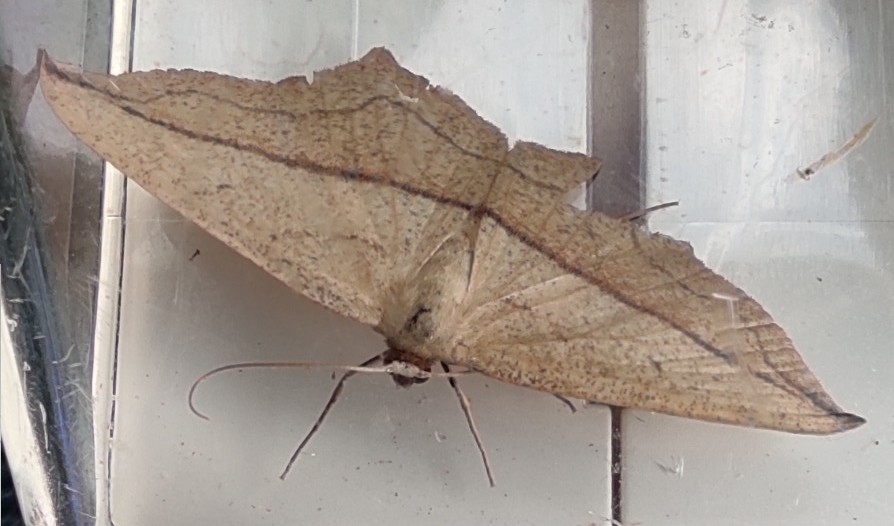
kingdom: Animalia
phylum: Arthropoda
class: Insecta
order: Lepidoptera
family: Geometridae
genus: Timandra
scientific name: Timandra comae
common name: Blood-vein
